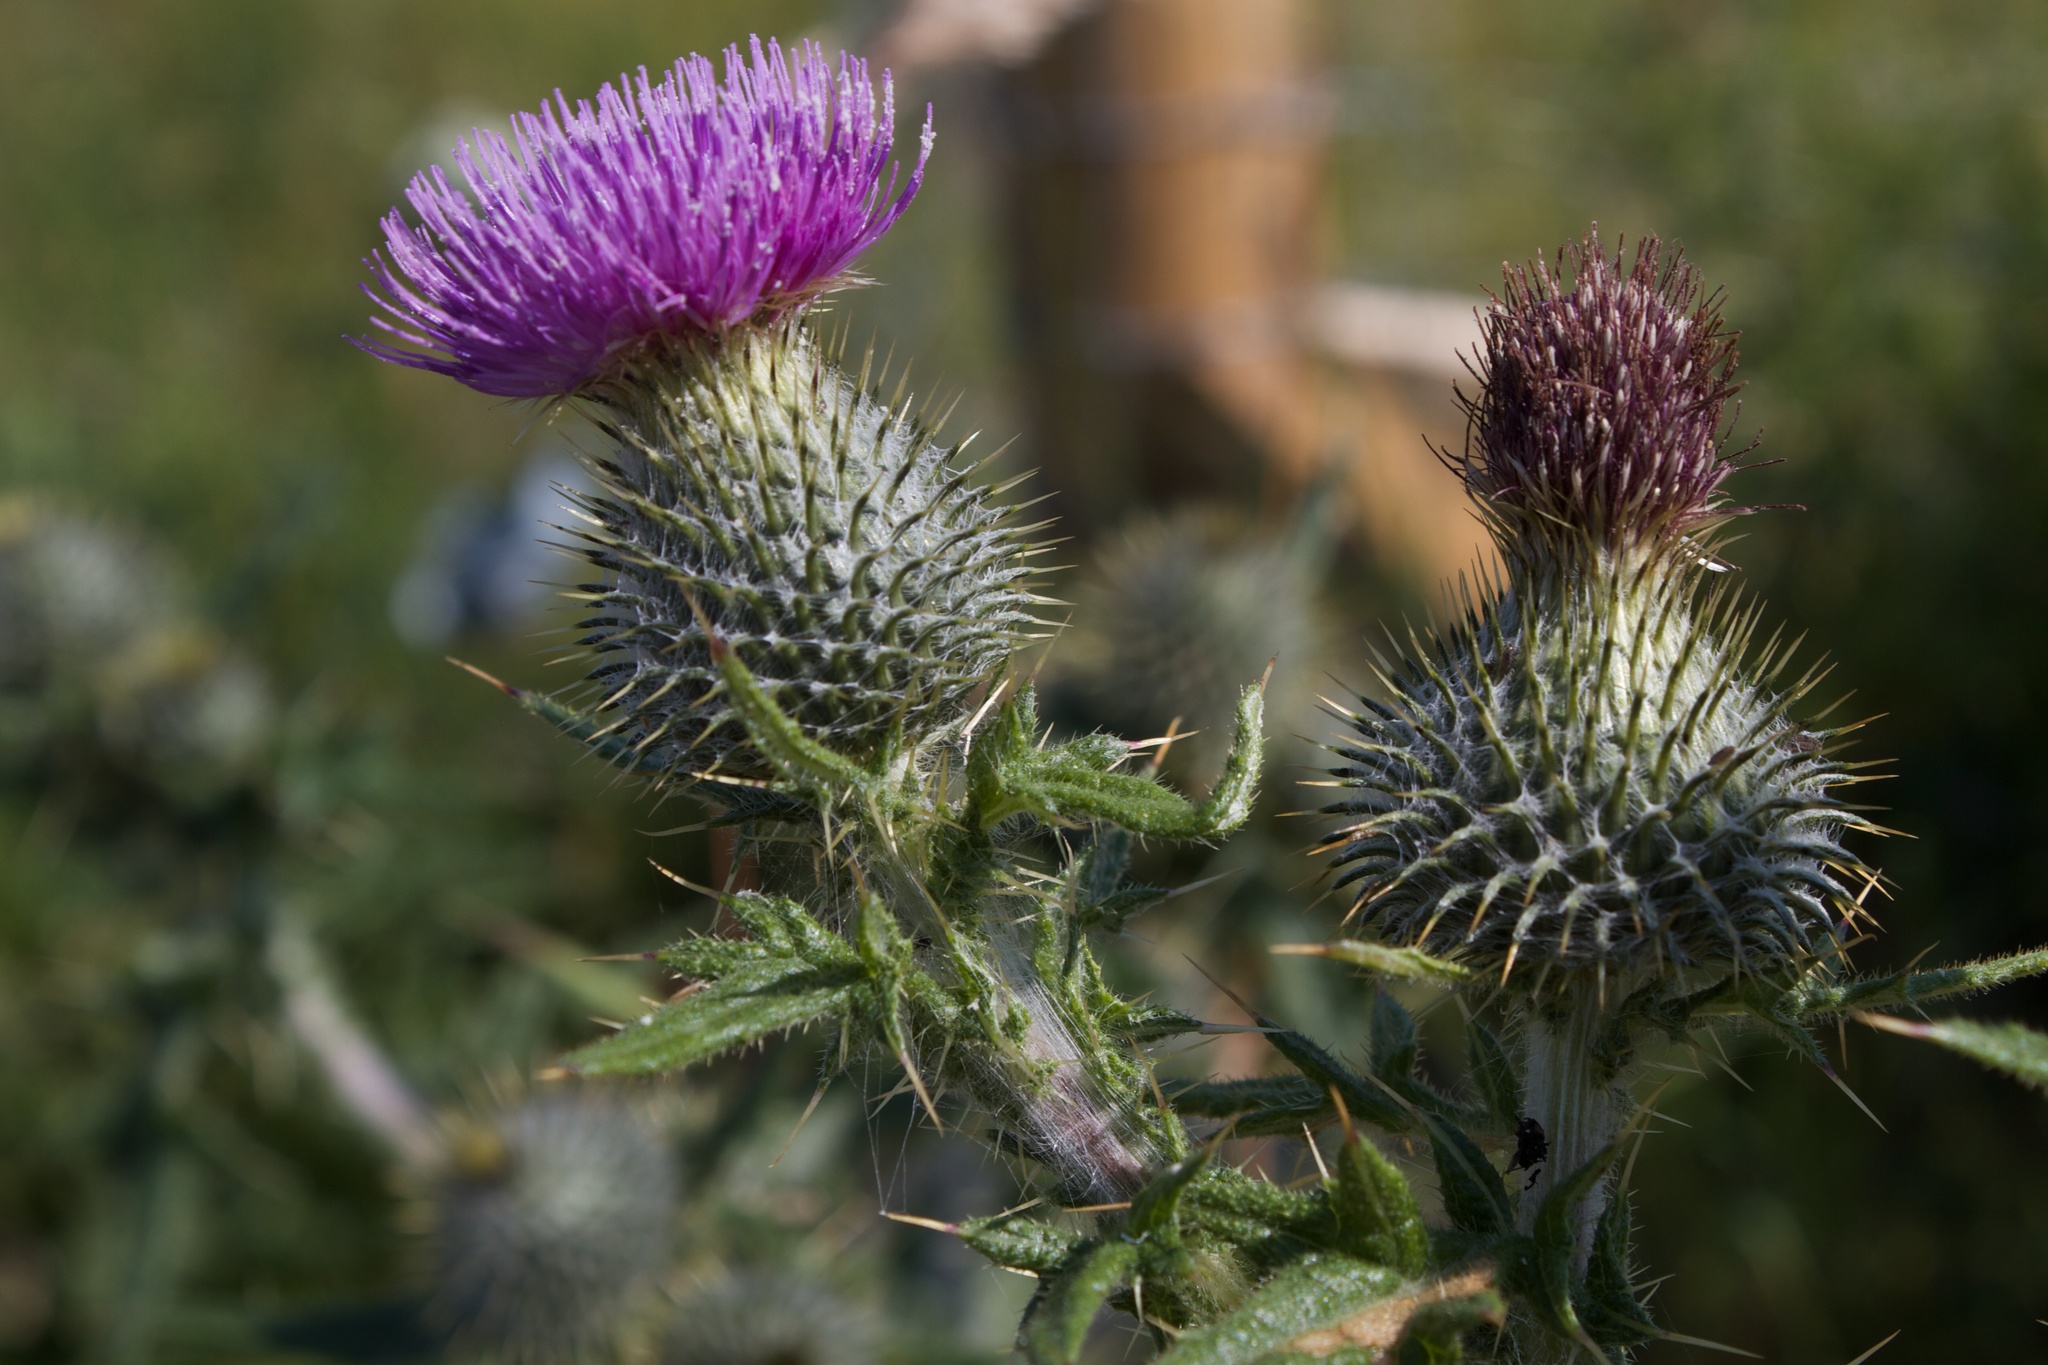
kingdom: Plantae
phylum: Tracheophyta
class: Magnoliopsida
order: Asterales
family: Asteraceae
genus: Cirsium
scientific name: Cirsium vulgare
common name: Bull thistle
